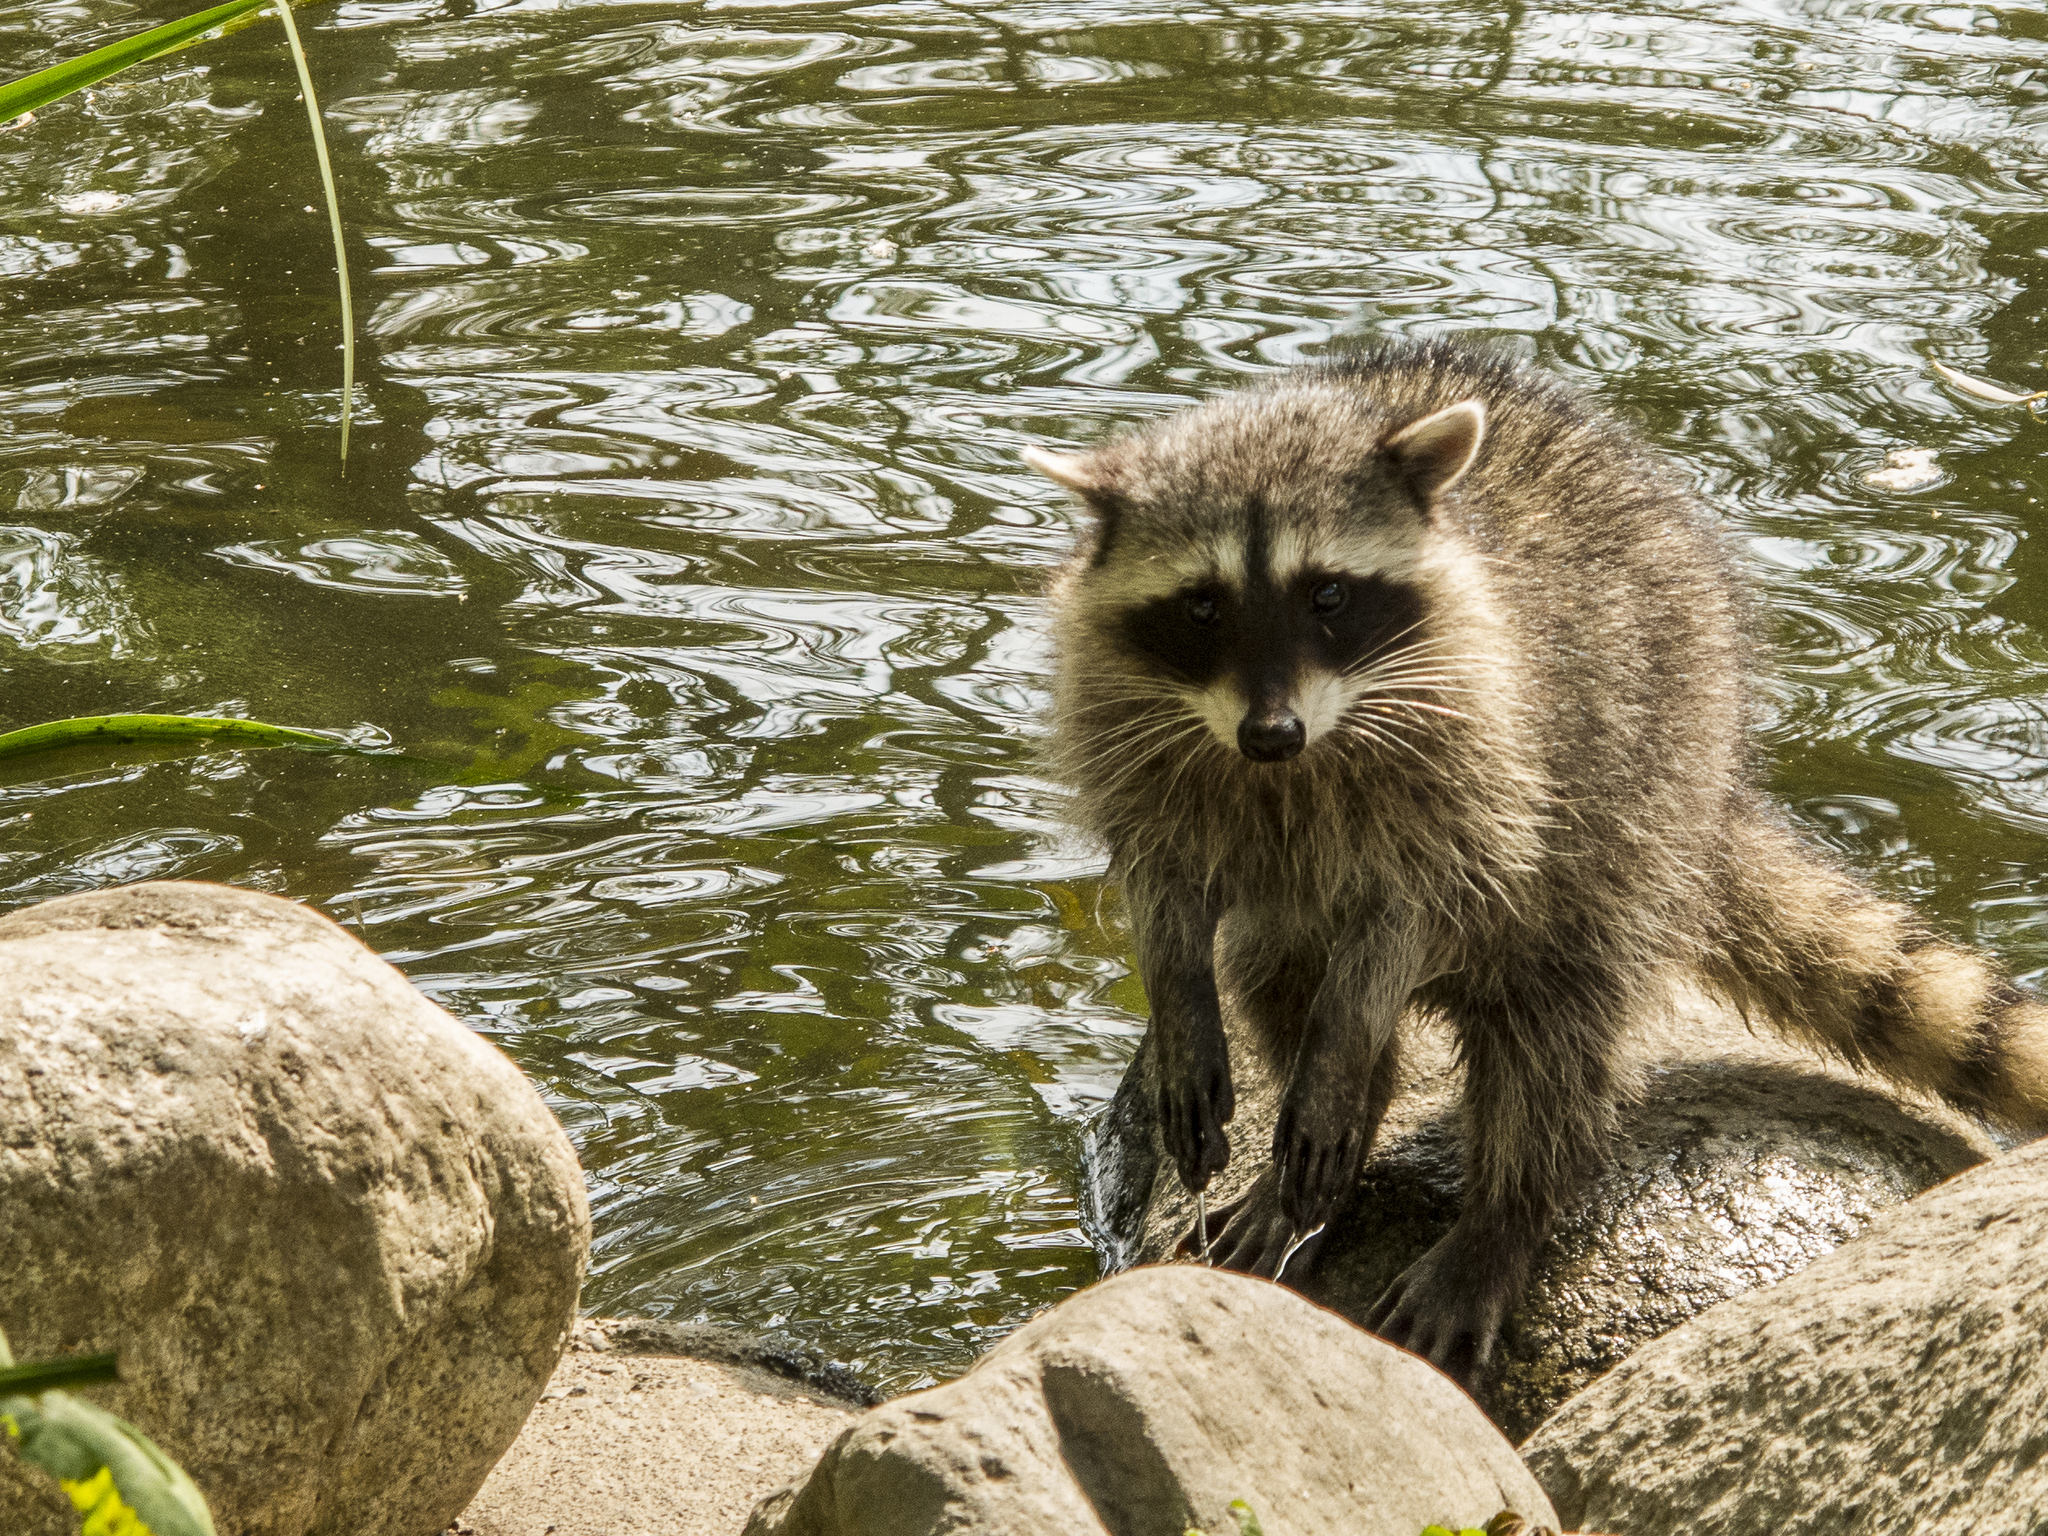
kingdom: Animalia
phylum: Chordata
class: Mammalia
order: Carnivora
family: Procyonidae
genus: Procyon
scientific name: Procyon lotor
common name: Raccoon
